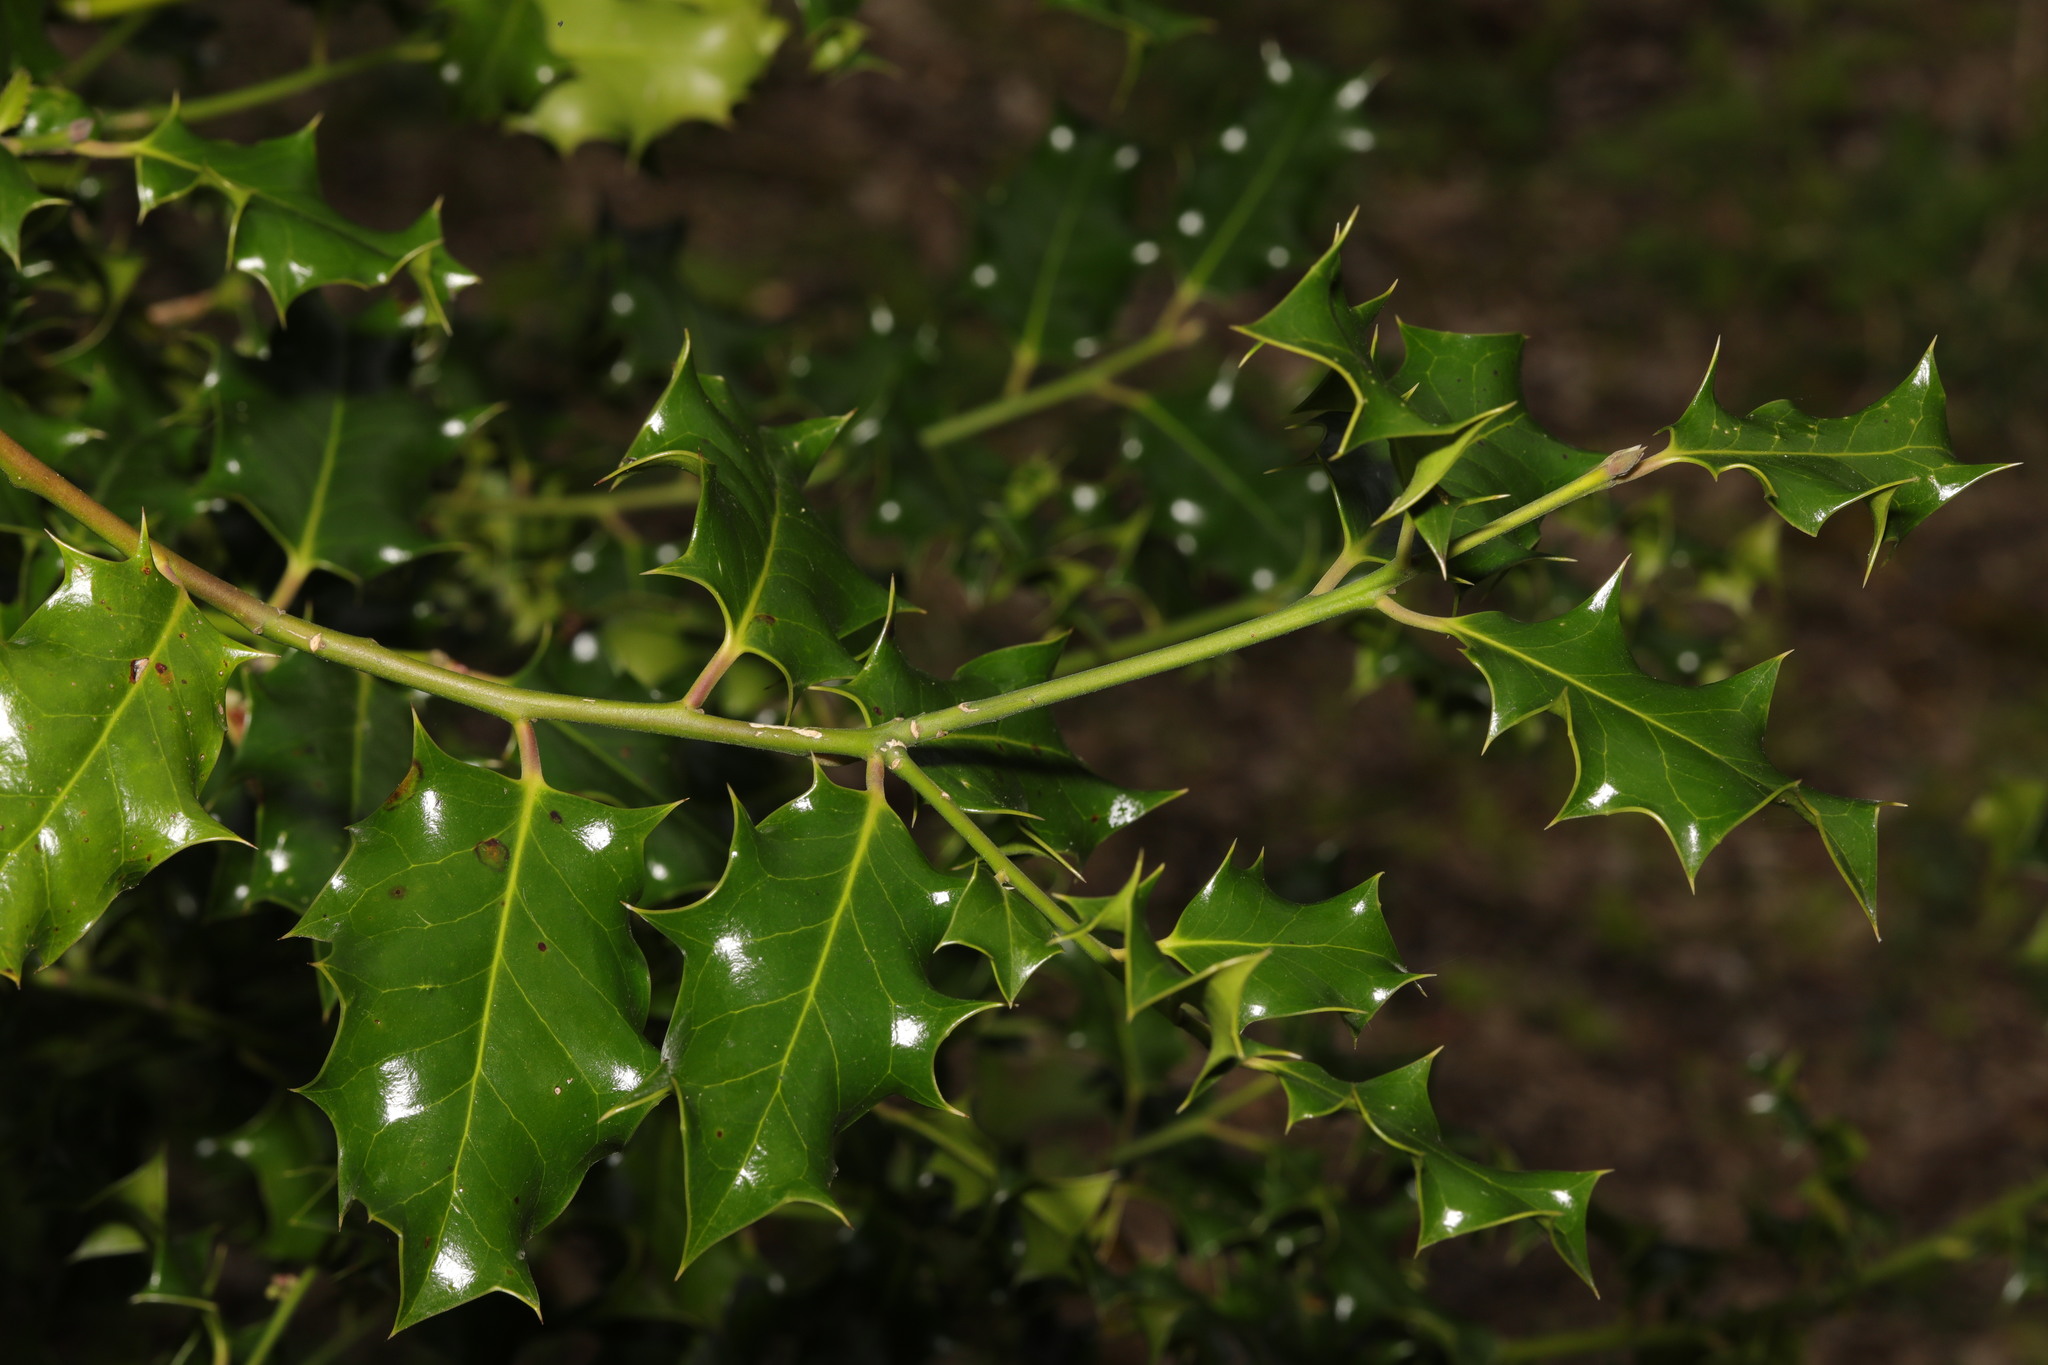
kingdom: Plantae
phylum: Tracheophyta
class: Magnoliopsida
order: Aquifoliales
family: Aquifoliaceae
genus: Ilex
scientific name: Ilex aquifolium
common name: English holly
